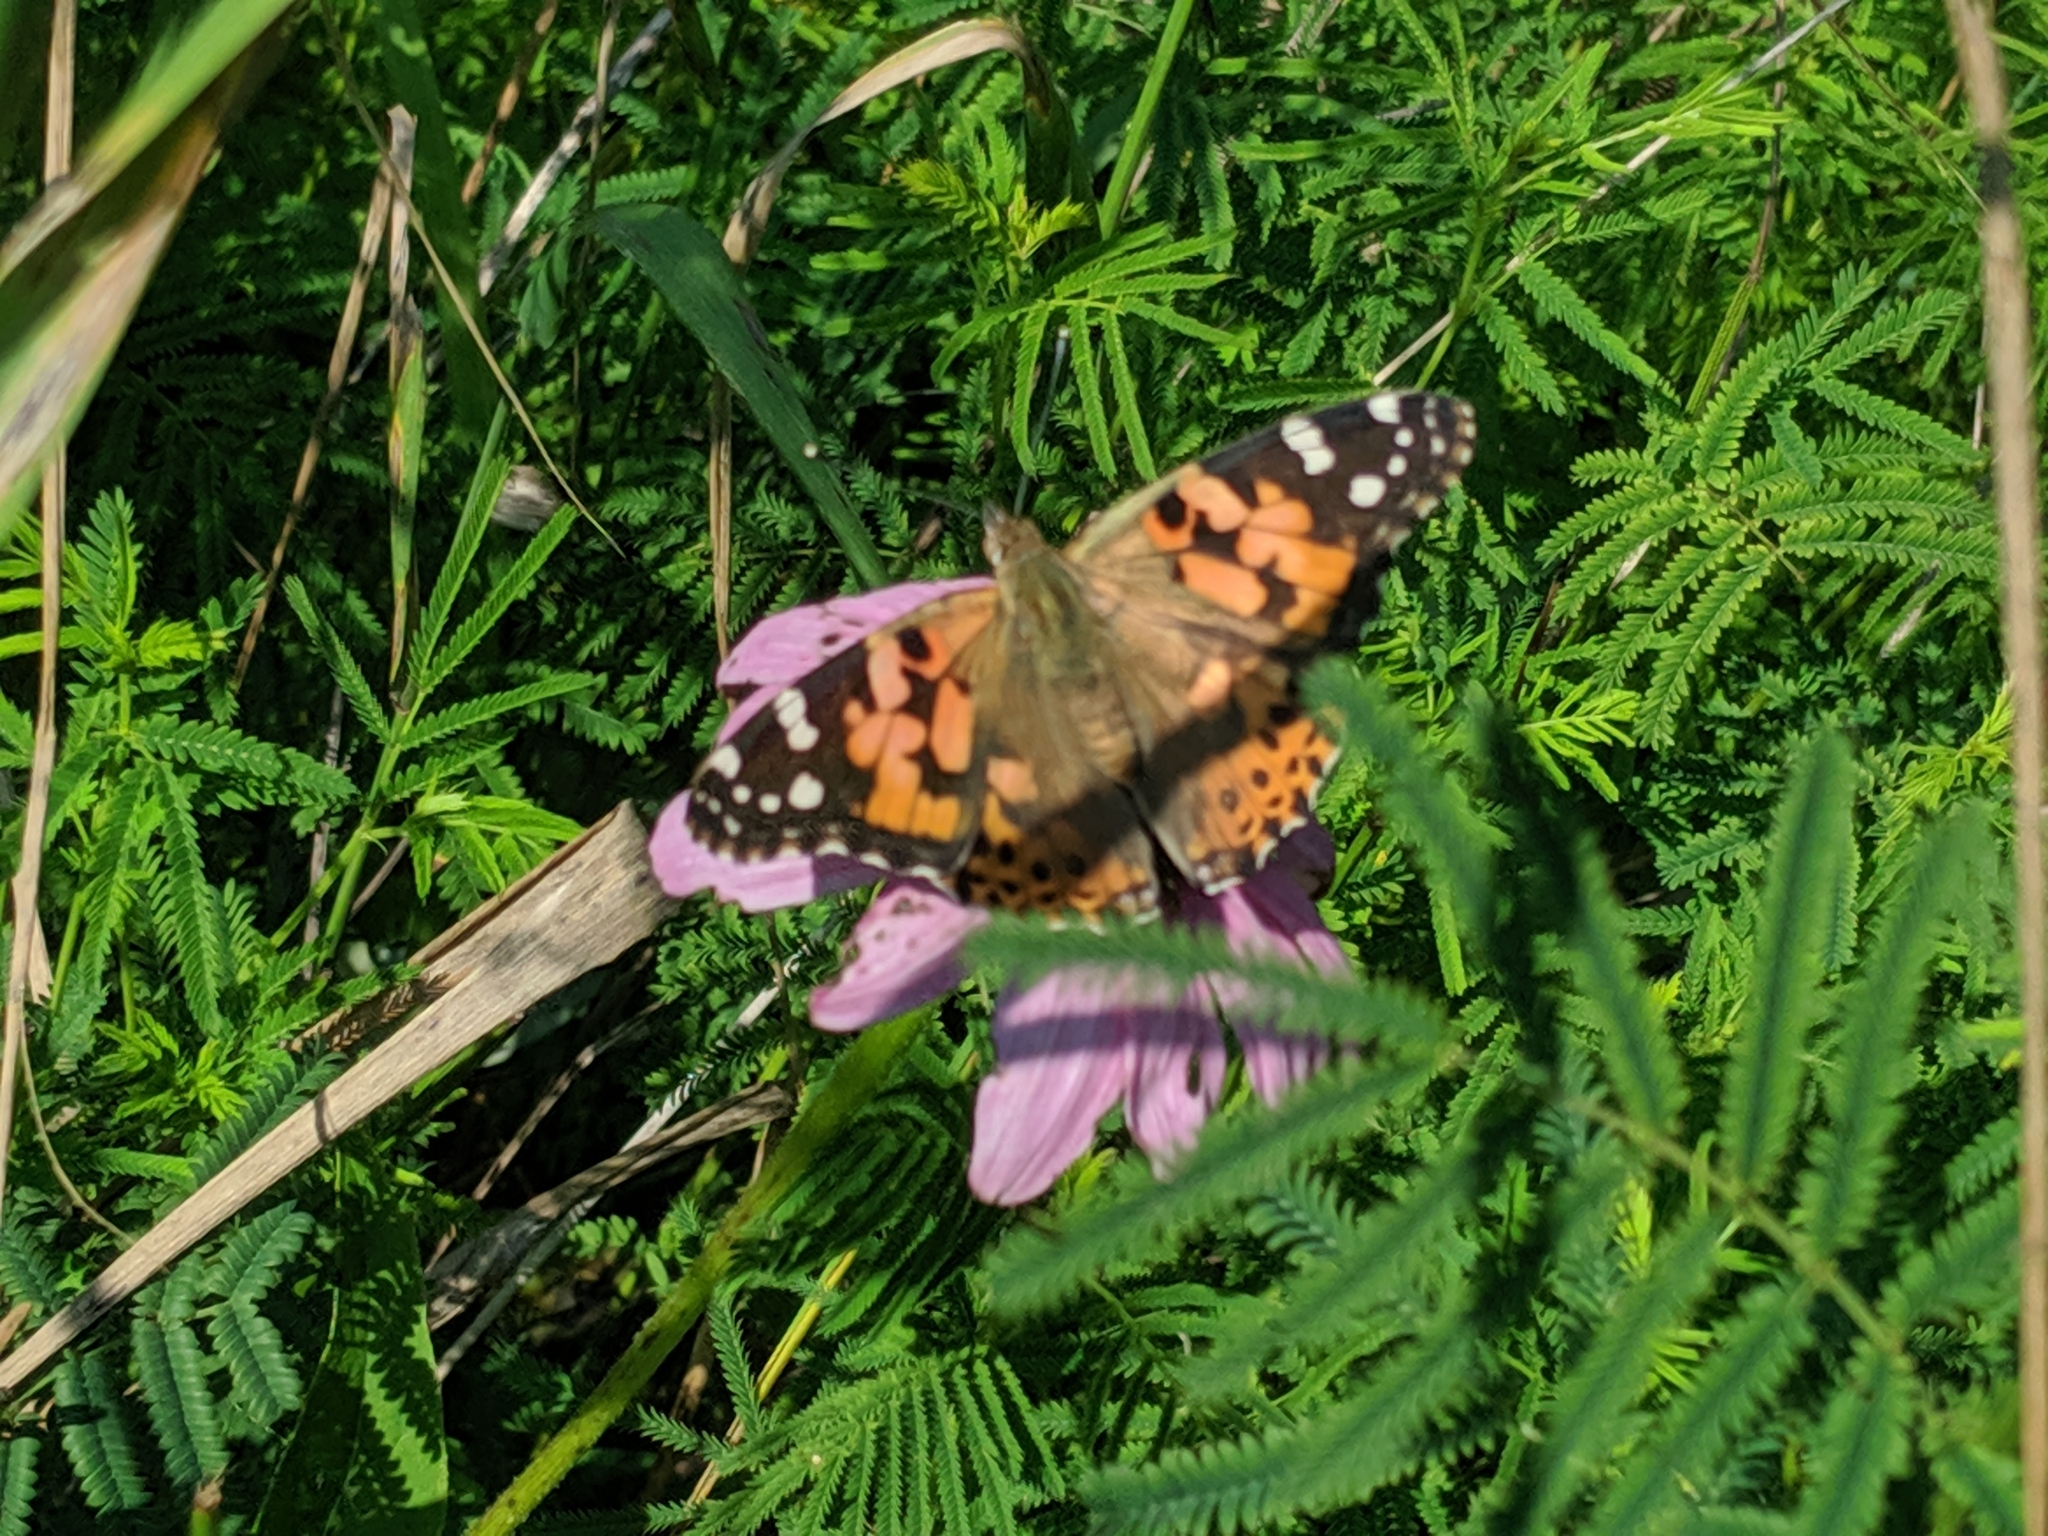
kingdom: Animalia
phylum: Arthropoda
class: Insecta
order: Lepidoptera
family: Nymphalidae
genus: Vanessa
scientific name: Vanessa cardui
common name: Painted lady
